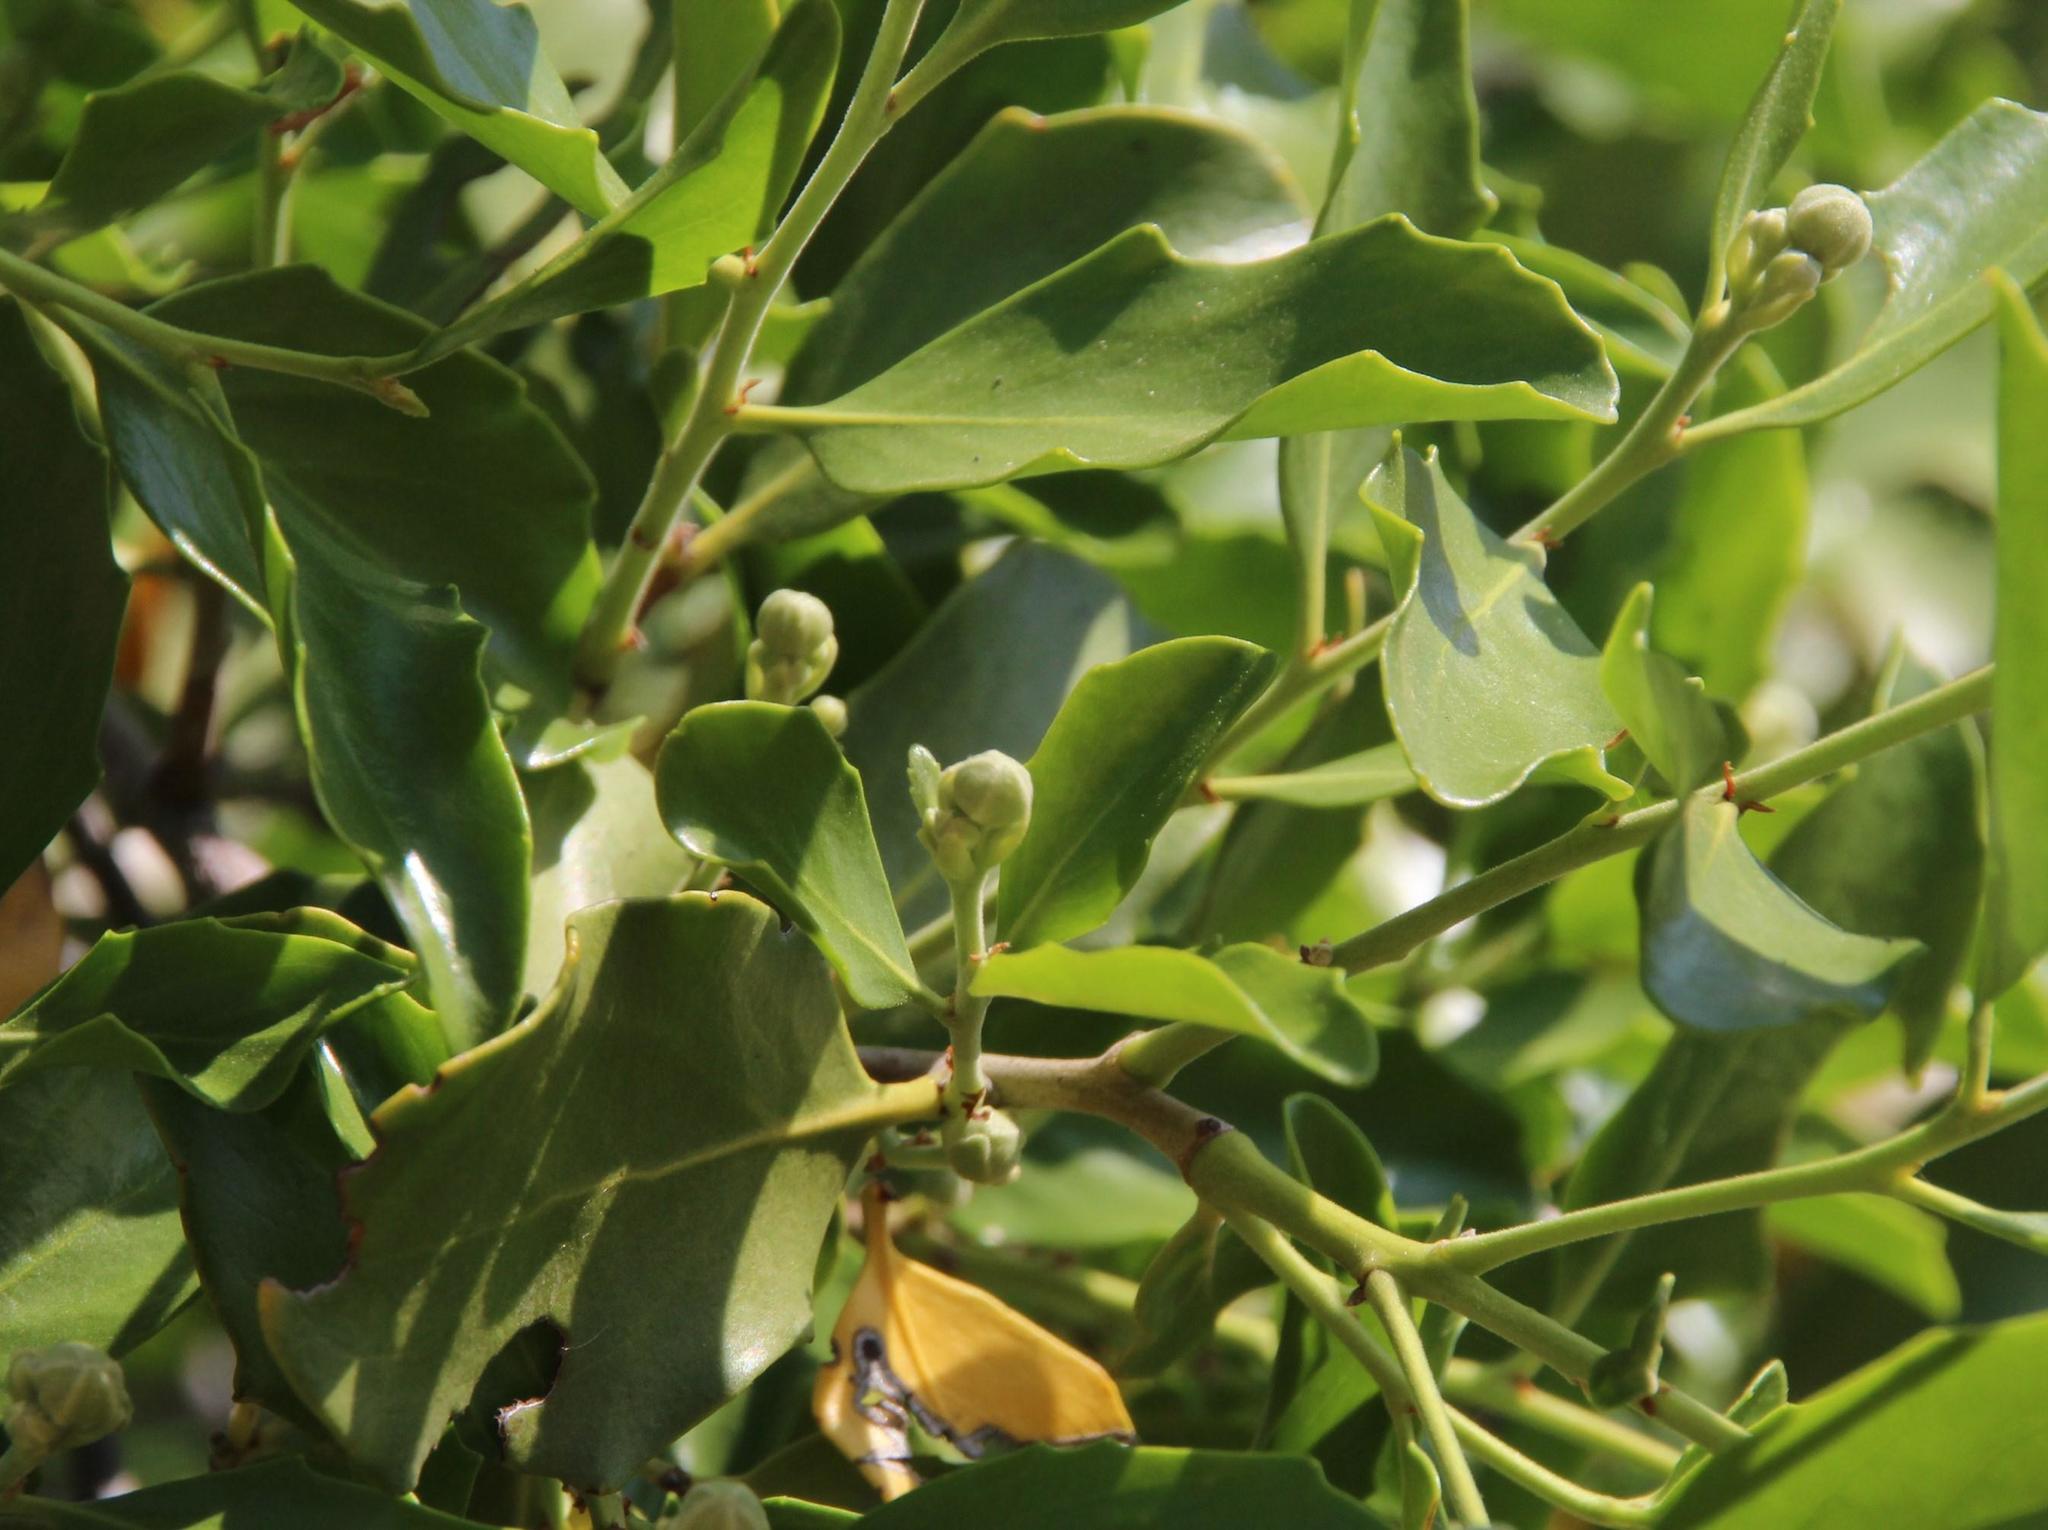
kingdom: Plantae
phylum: Tracheophyta
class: Magnoliopsida
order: Fabales
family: Quillajaceae
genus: Quillaja
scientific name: Quillaja saponaria
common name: Murillo's-bark
